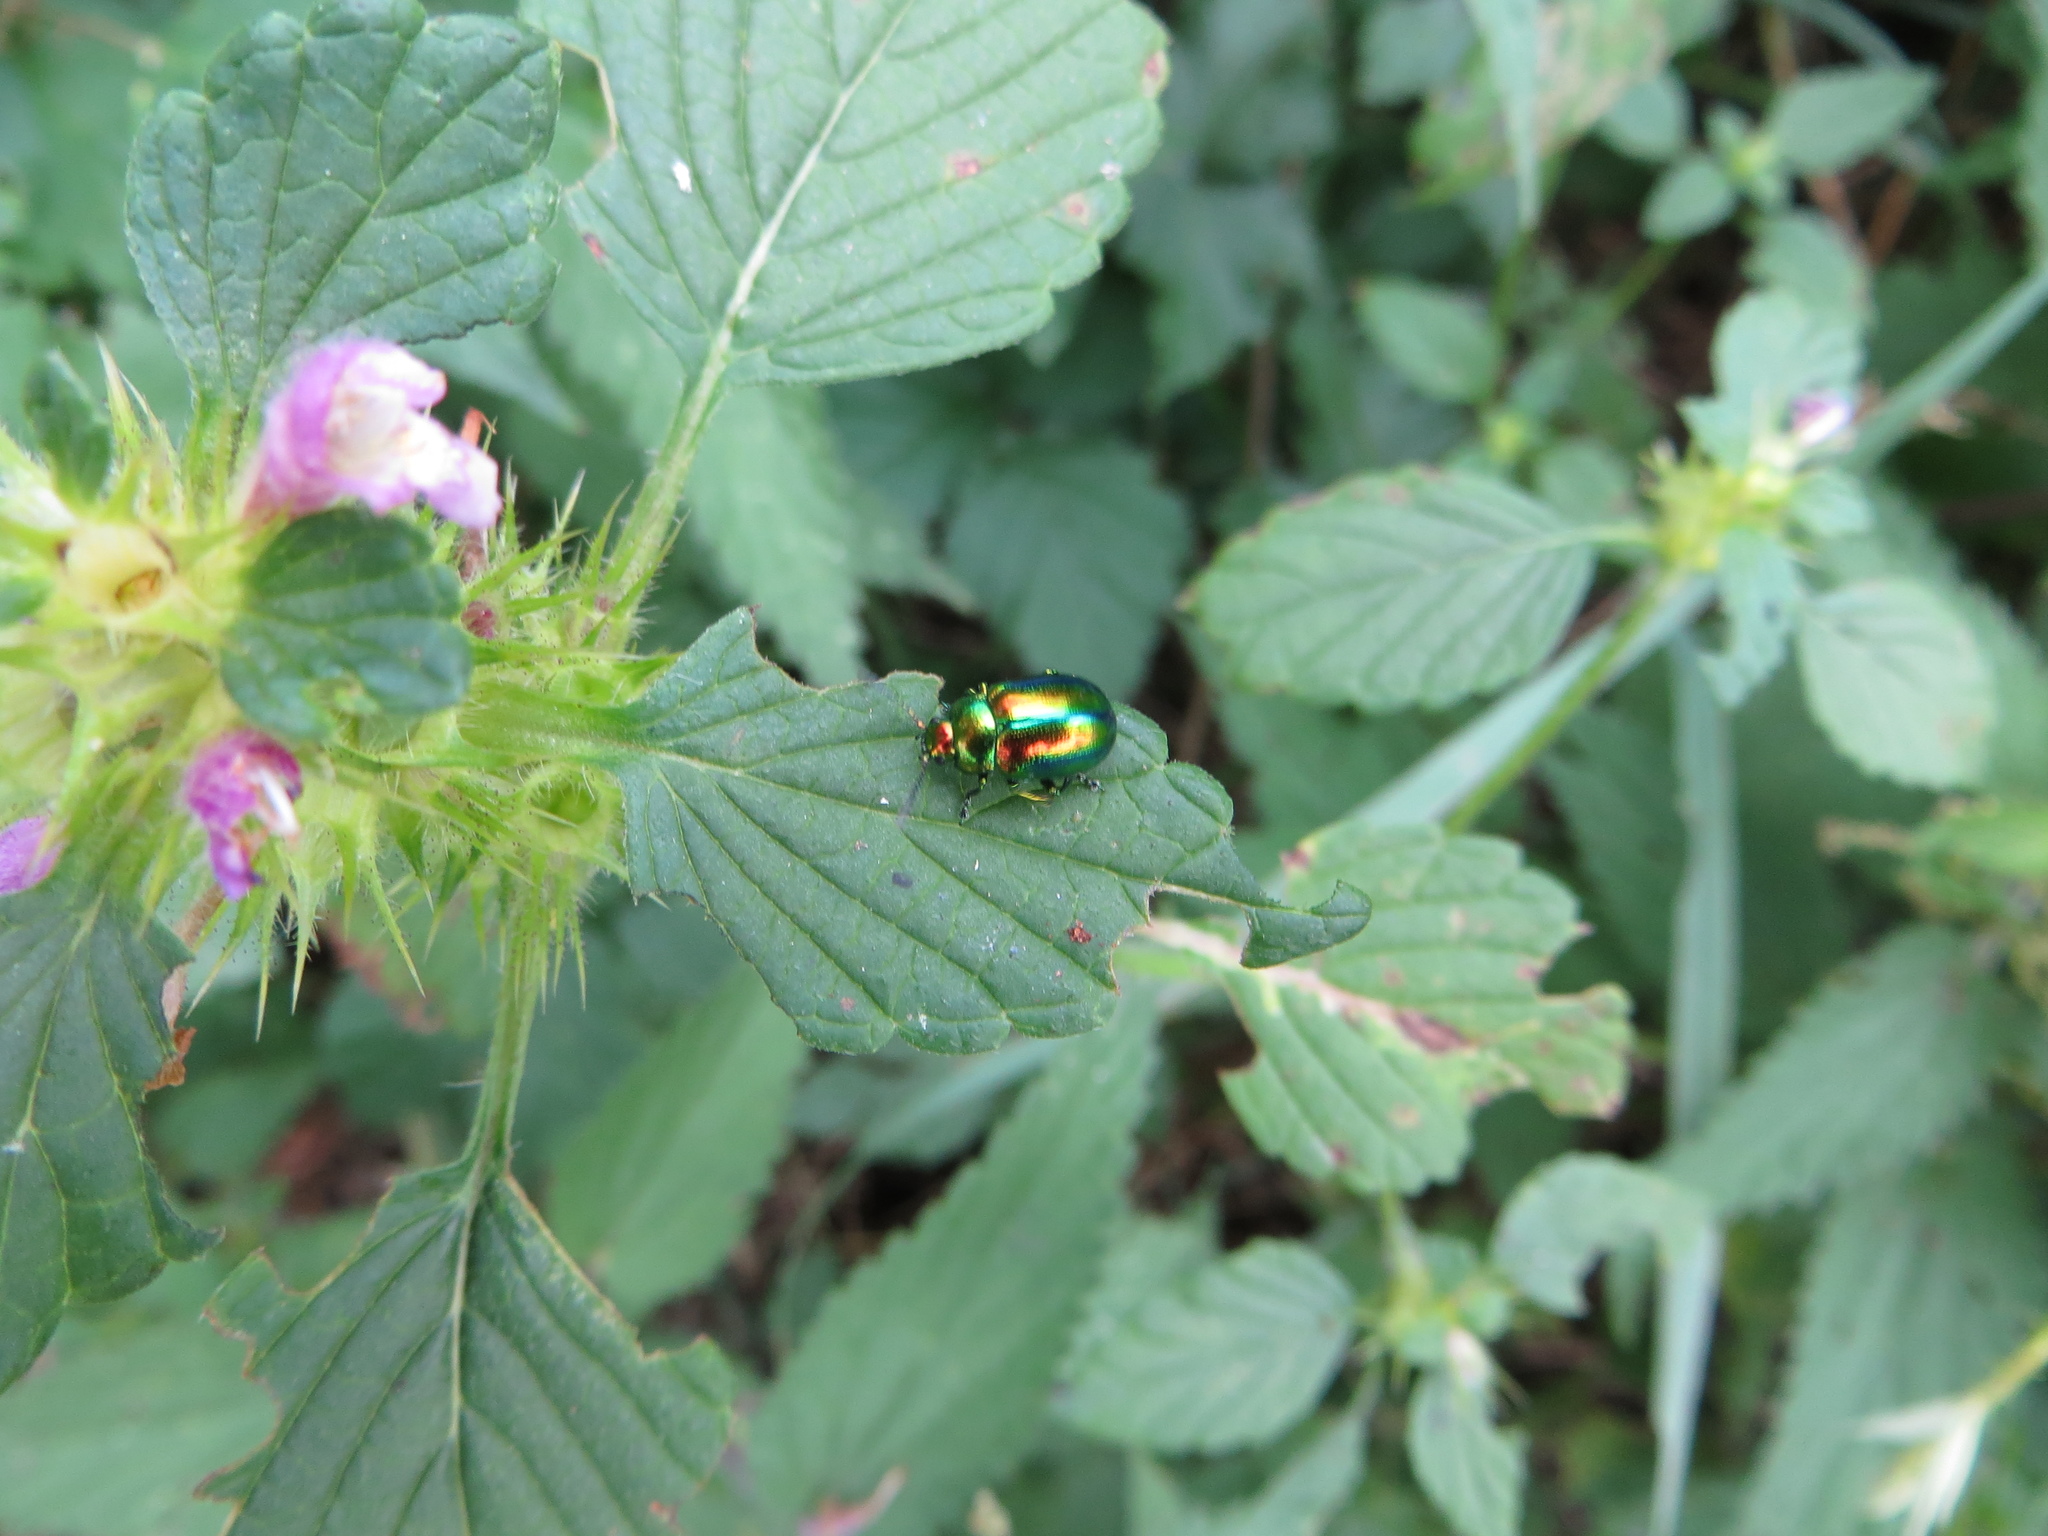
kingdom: Animalia
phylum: Arthropoda
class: Insecta
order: Coleoptera
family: Chrysomelidae
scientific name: Chrysomelidae
